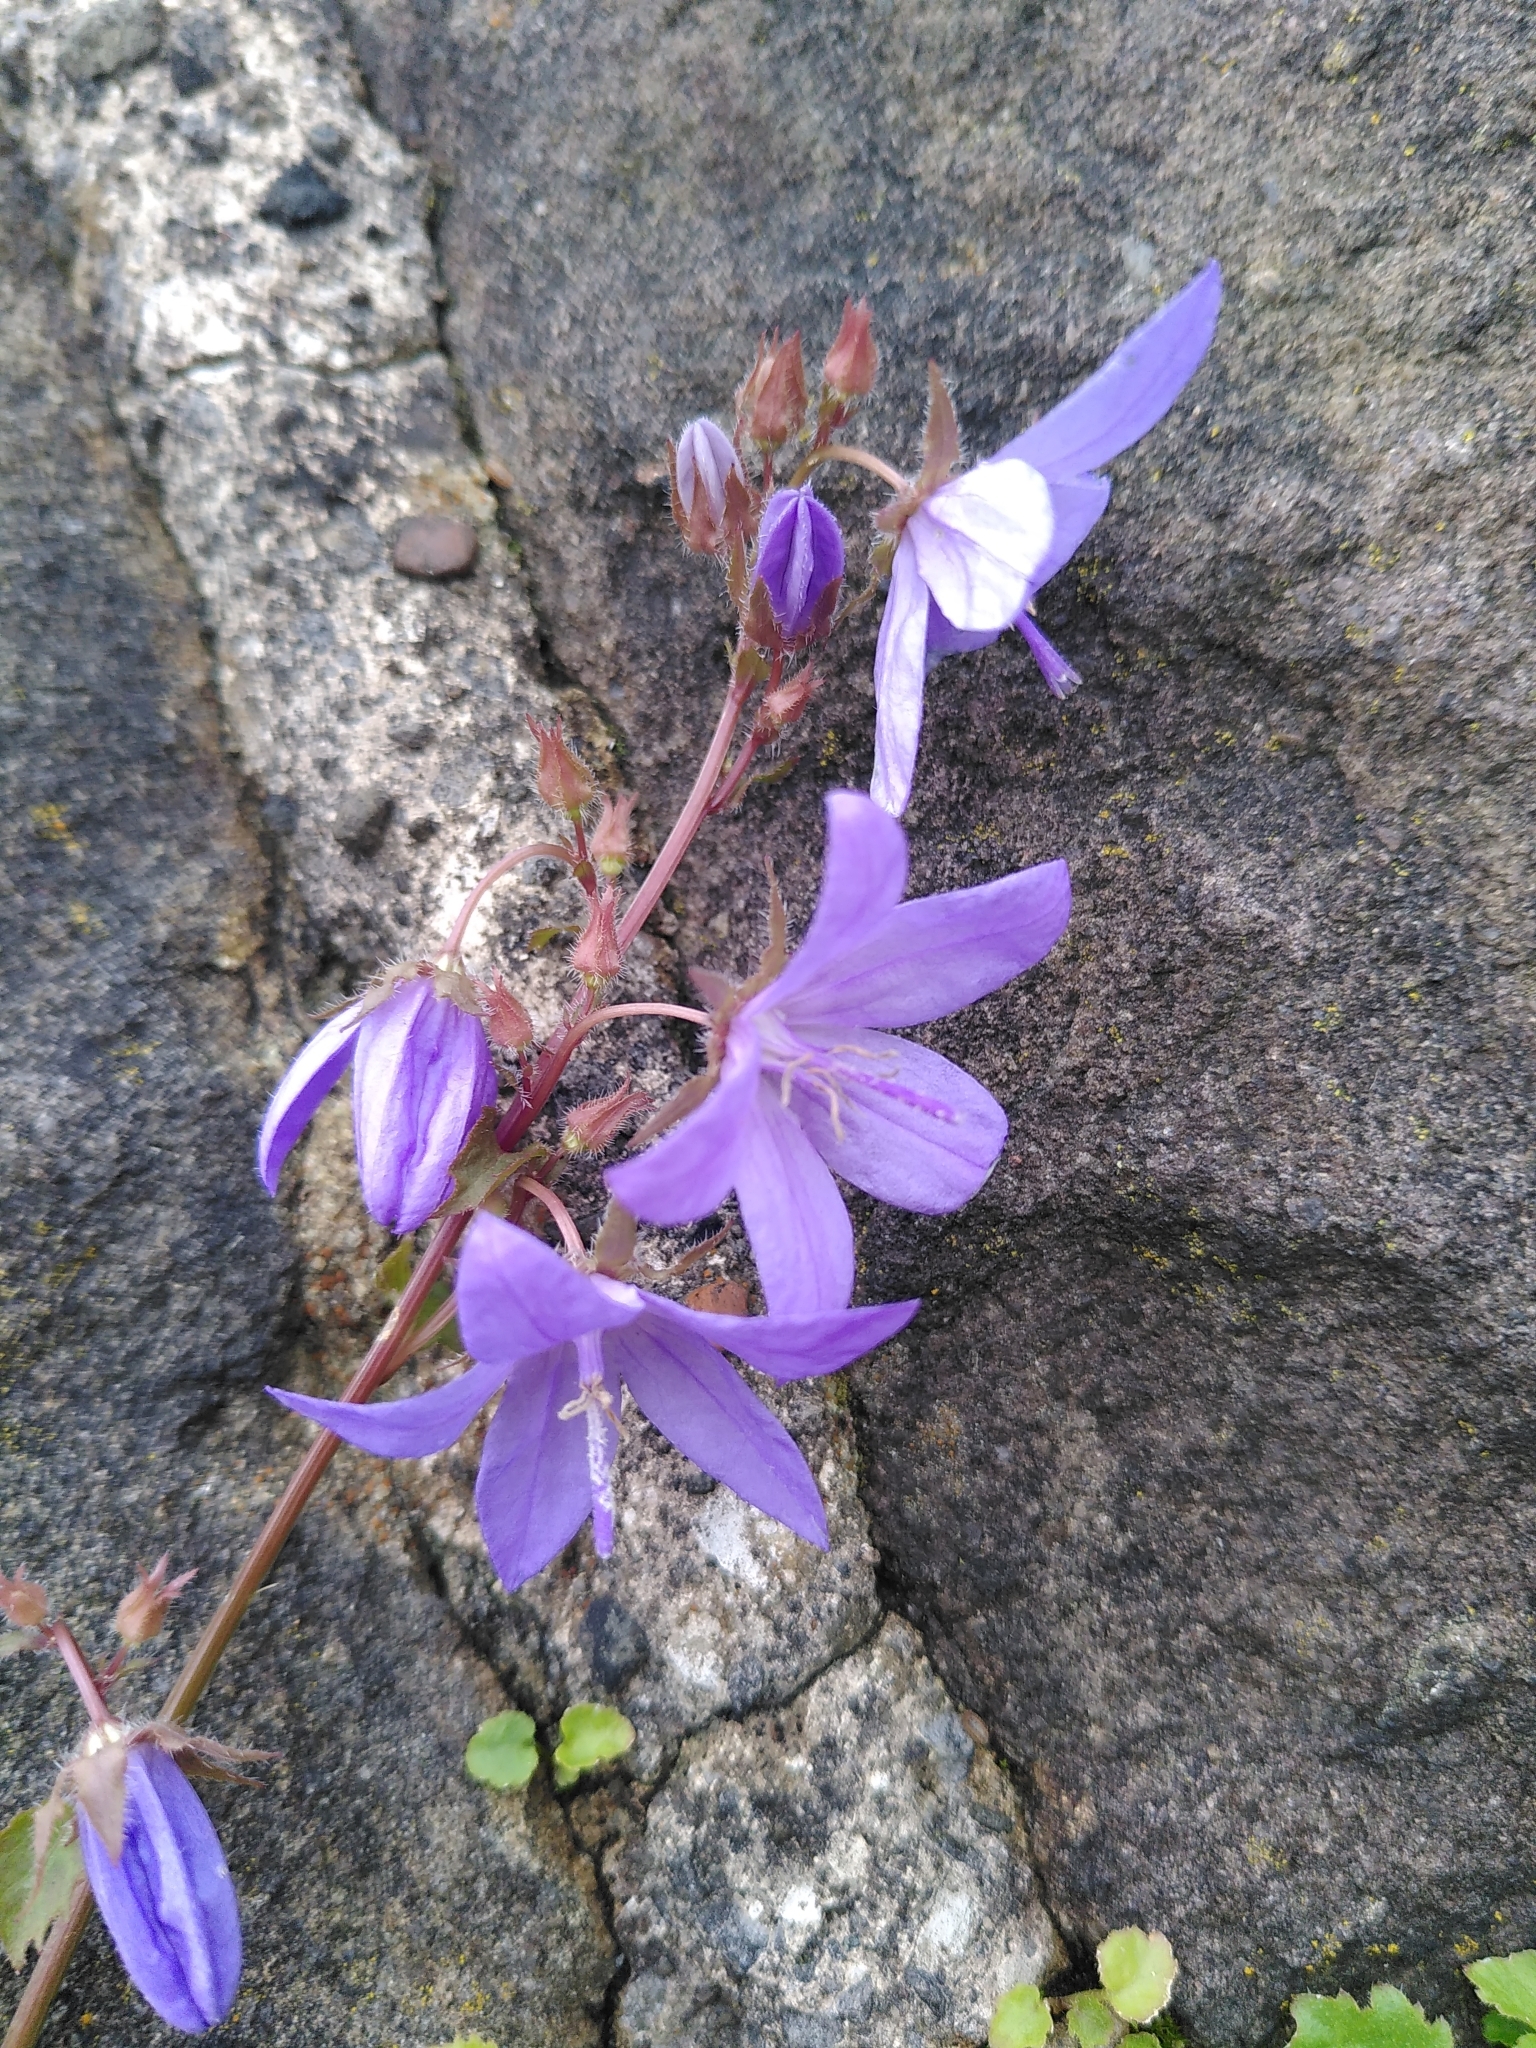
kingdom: Plantae
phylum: Tracheophyta
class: Magnoliopsida
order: Asterales
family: Campanulaceae
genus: Campanula
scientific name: Campanula poscharskyana
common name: Trailing bellflower
